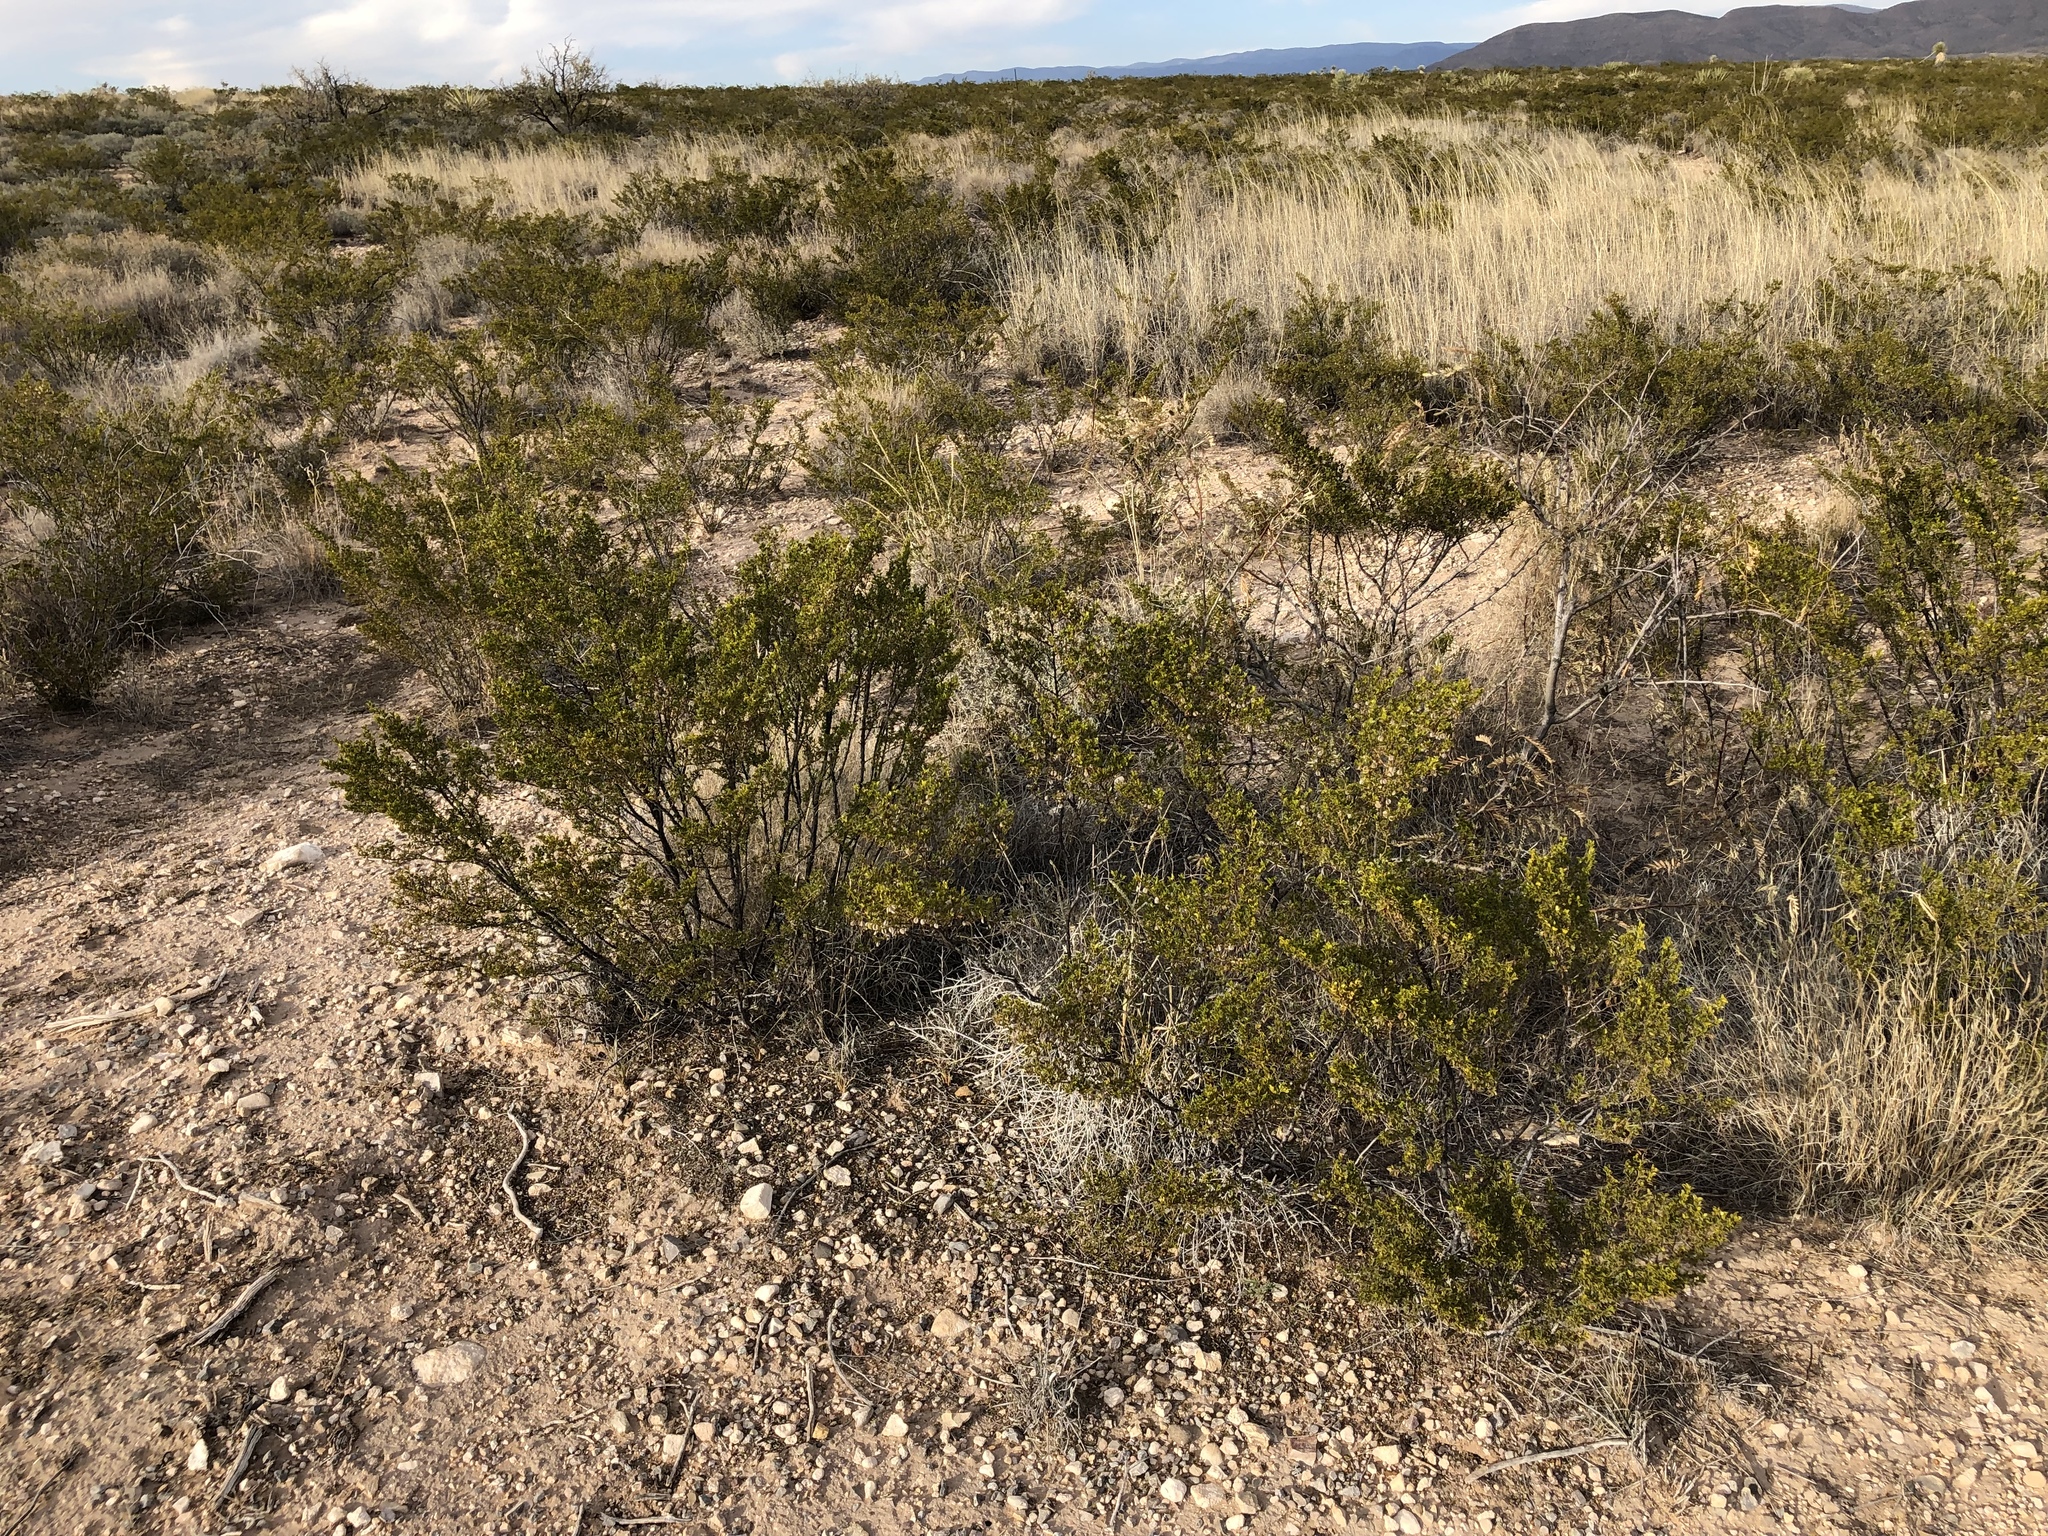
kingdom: Plantae
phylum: Tracheophyta
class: Magnoliopsida
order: Zygophyllales
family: Zygophyllaceae
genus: Larrea
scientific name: Larrea tridentata
